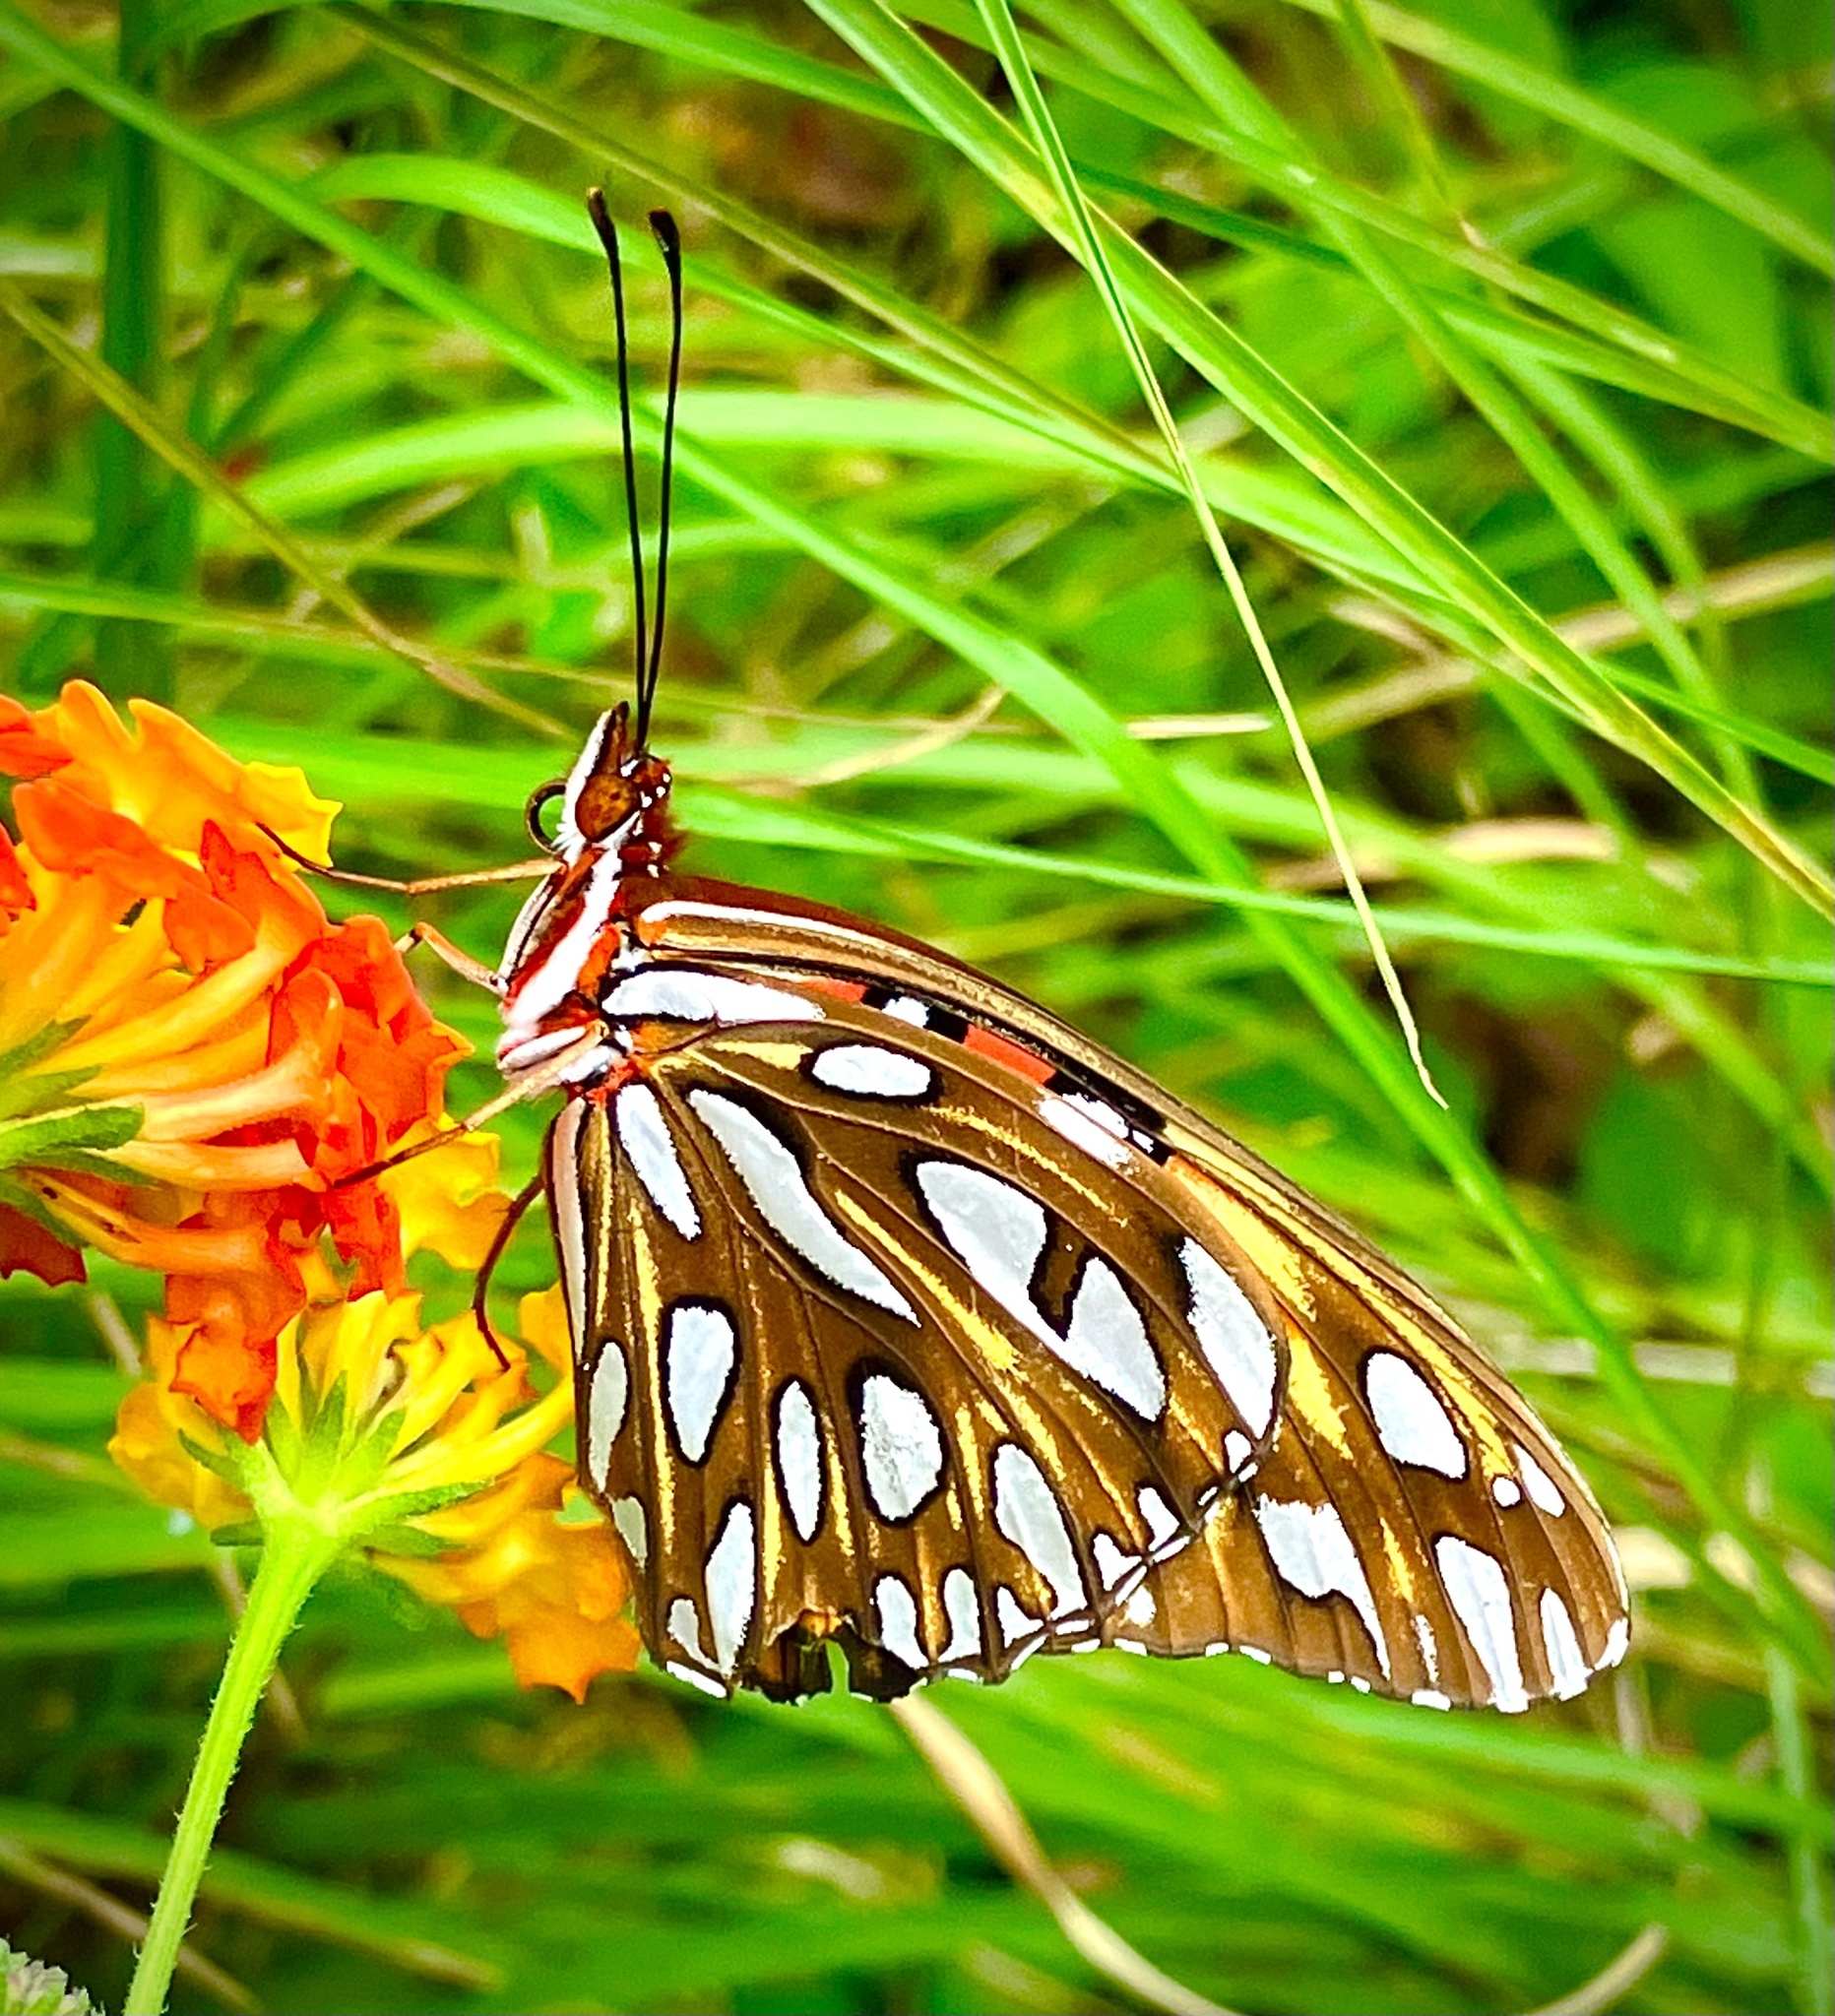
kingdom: Animalia
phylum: Arthropoda
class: Insecta
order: Lepidoptera
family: Nymphalidae
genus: Dione
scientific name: Dione vanillae
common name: Gulf fritillary
